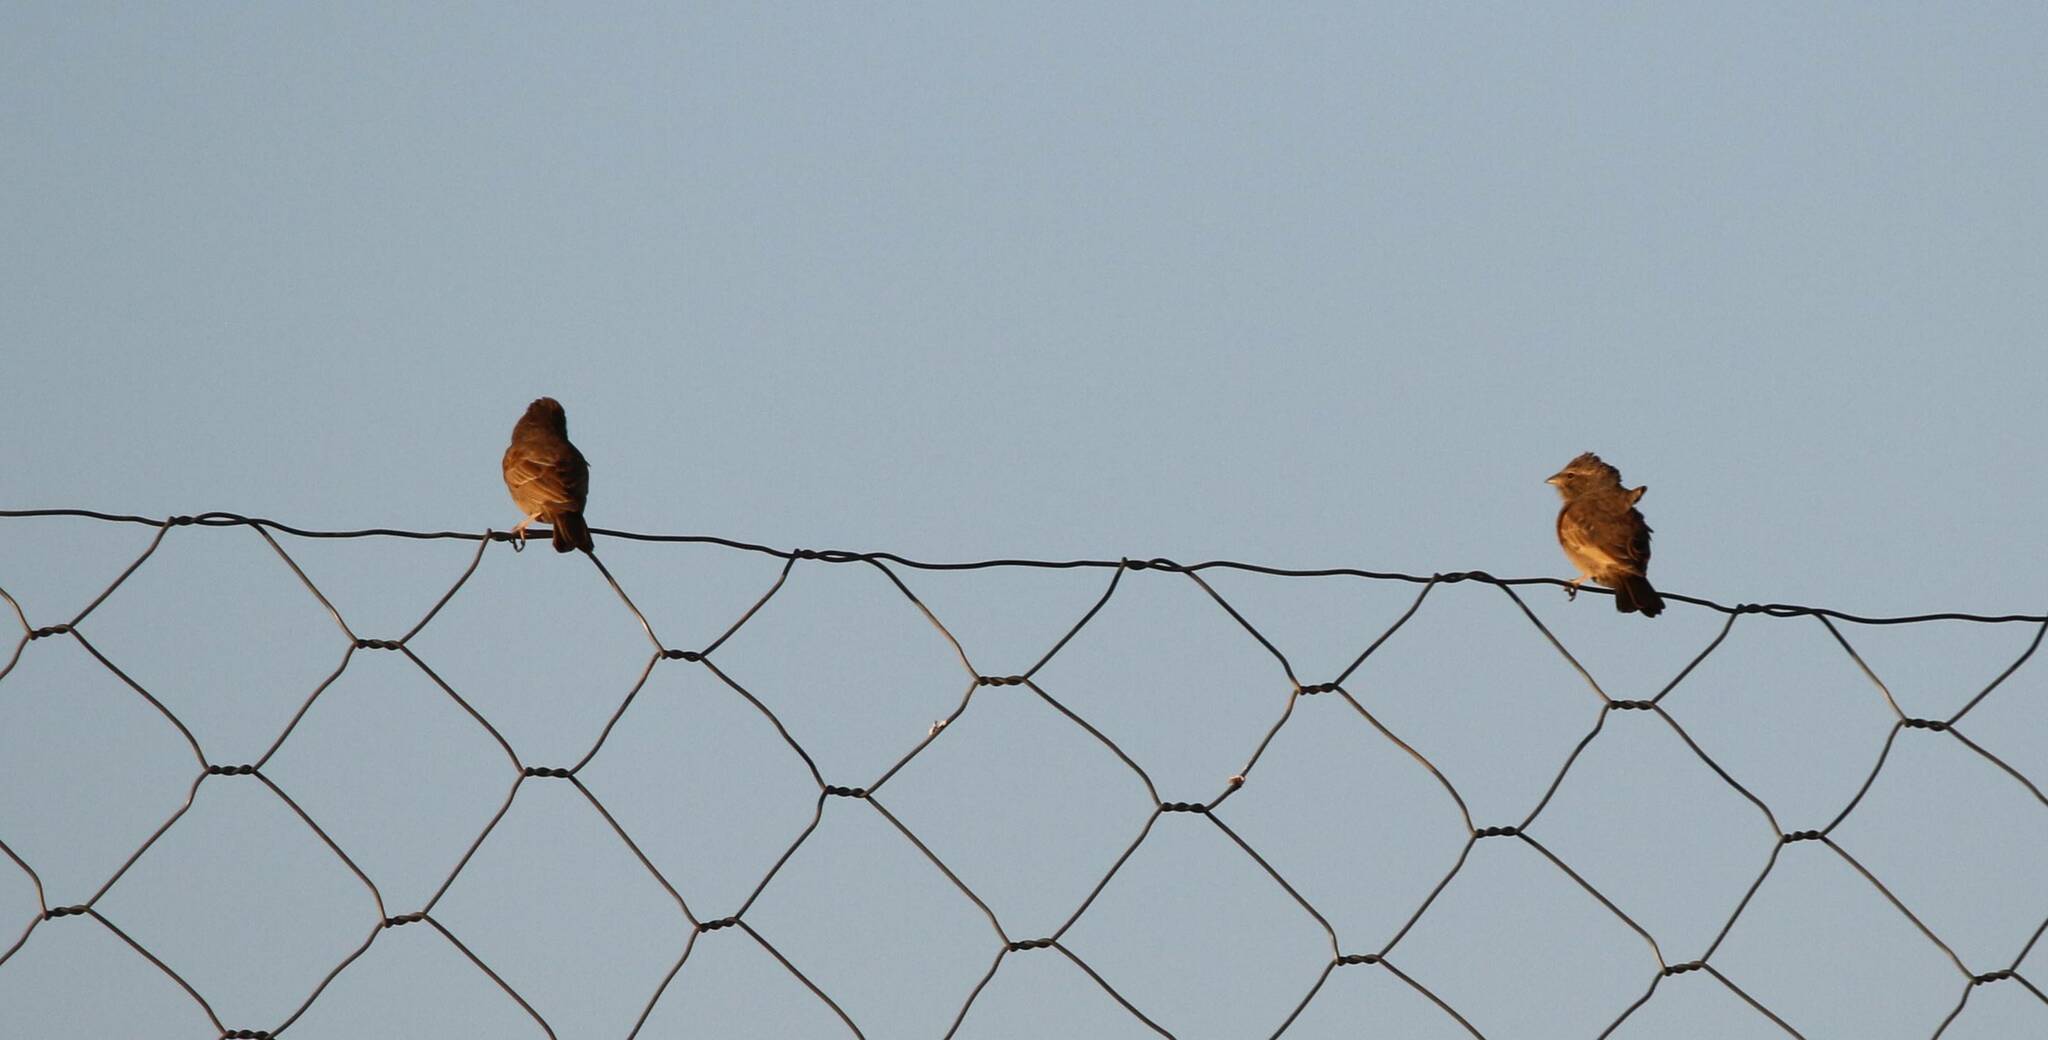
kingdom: Animalia
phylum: Chordata
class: Aves
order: Passeriformes
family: Emberizidae
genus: Emberiza
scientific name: Emberiza sahari
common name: House bunting
